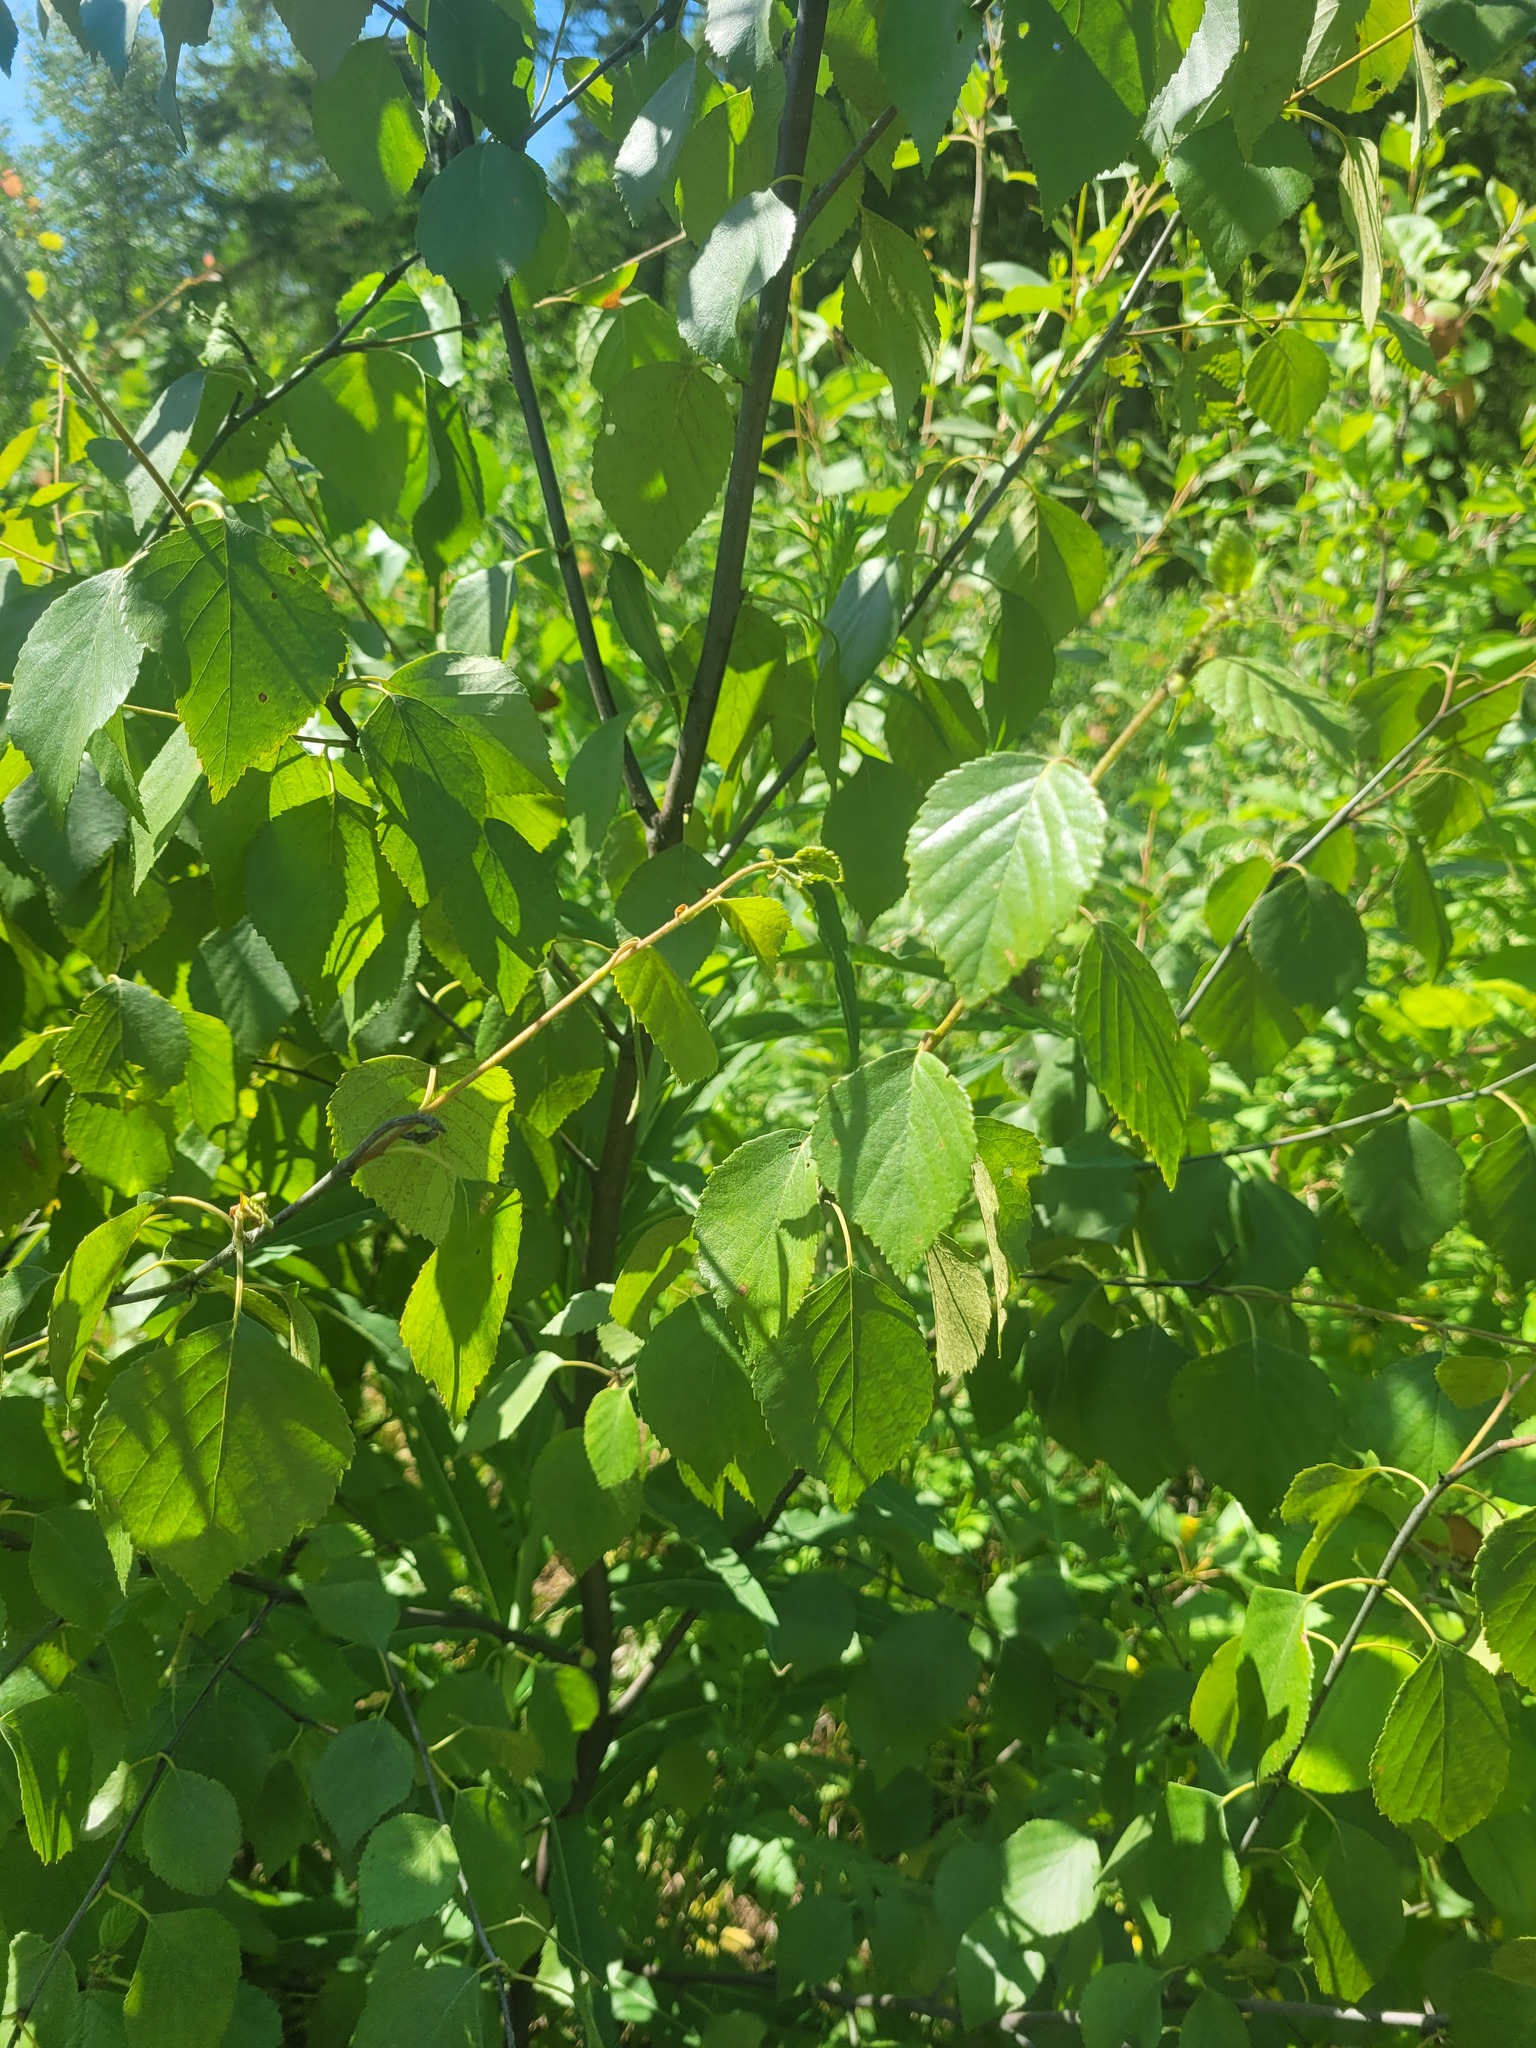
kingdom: Plantae
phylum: Tracheophyta
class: Magnoliopsida
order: Fagales
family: Betulaceae
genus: Betula
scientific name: Betula pubescens
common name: Downy birch
